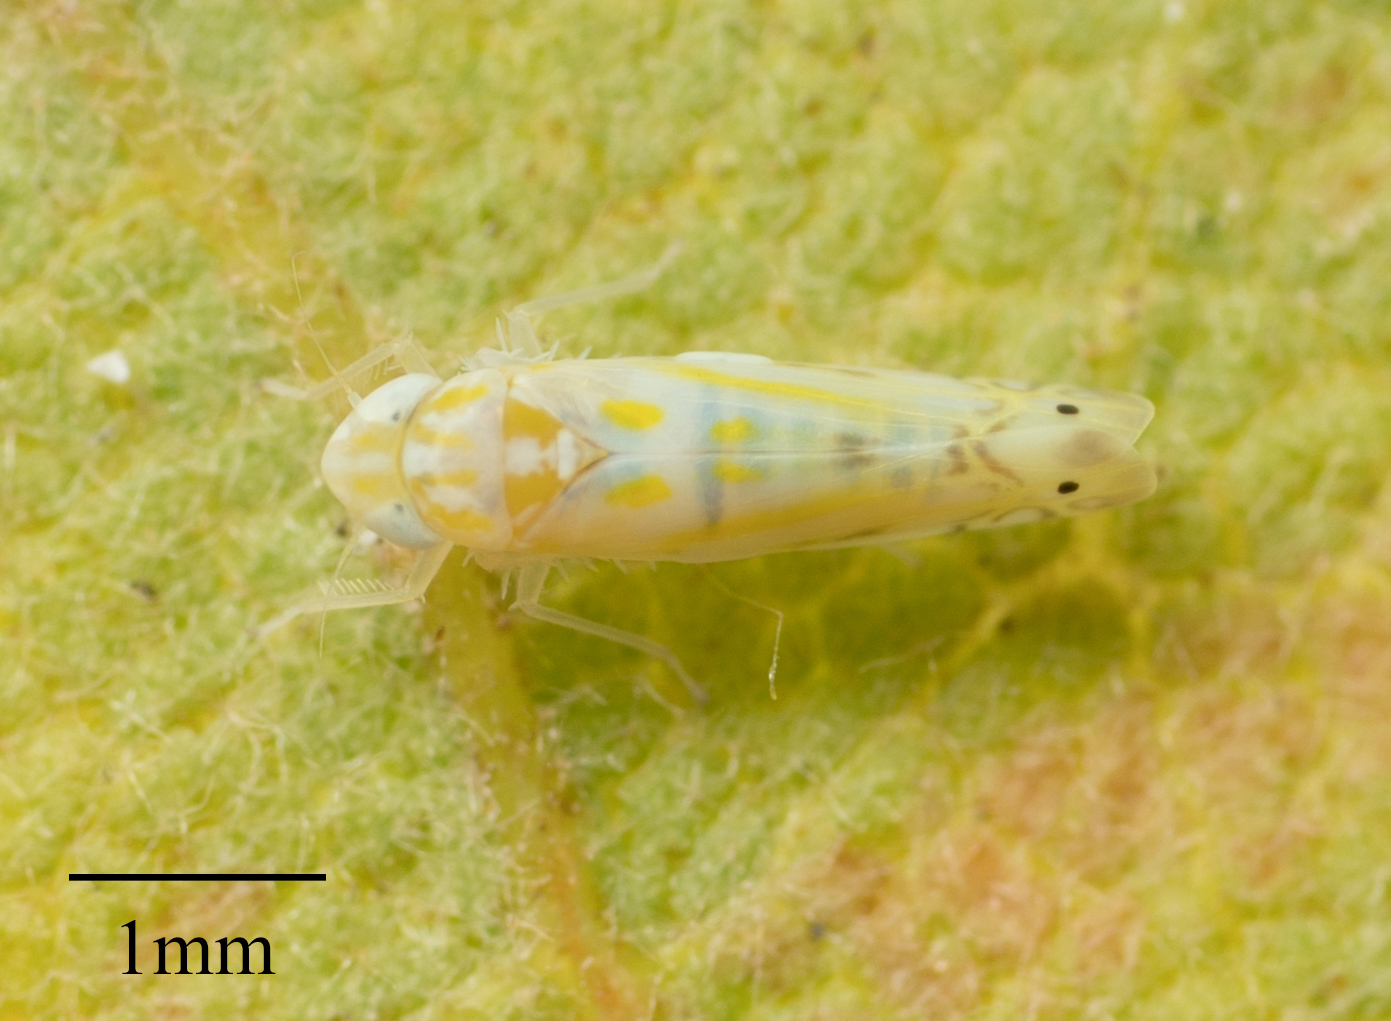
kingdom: Animalia
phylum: Arthropoda
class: Insecta
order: Hemiptera
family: Cicadellidae
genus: Alconeura
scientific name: Alconeura quadrimaculata
